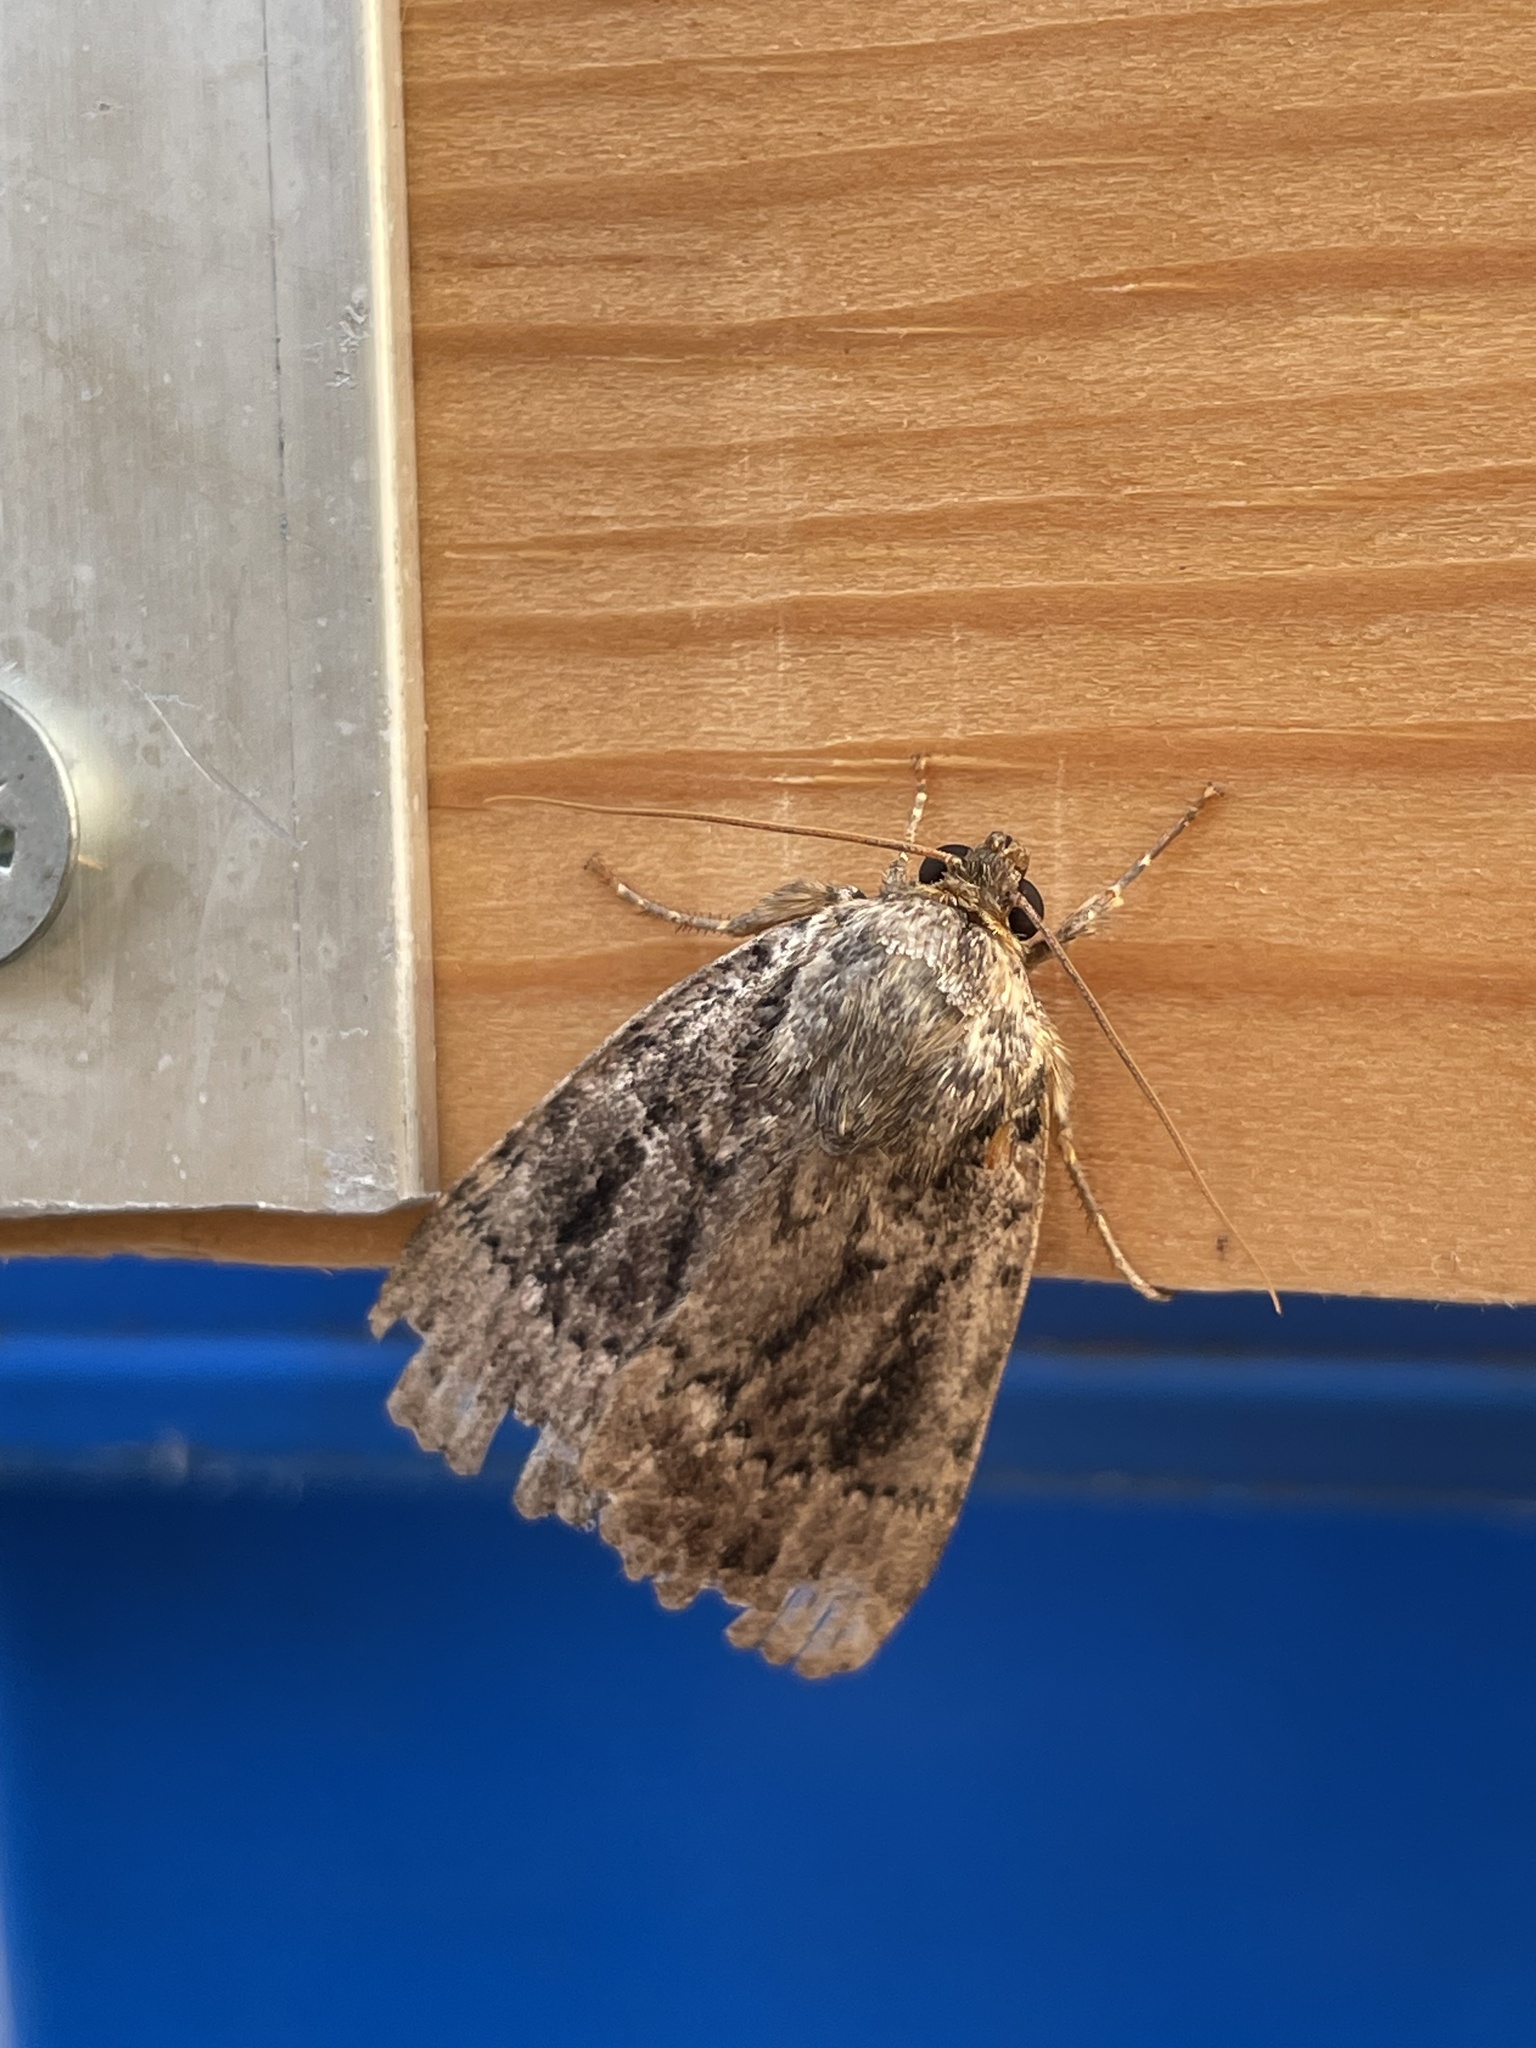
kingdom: Animalia
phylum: Arthropoda
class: Insecta
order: Lepidoptera
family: Noctuidae
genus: Amphipyra
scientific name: Amphipyra
